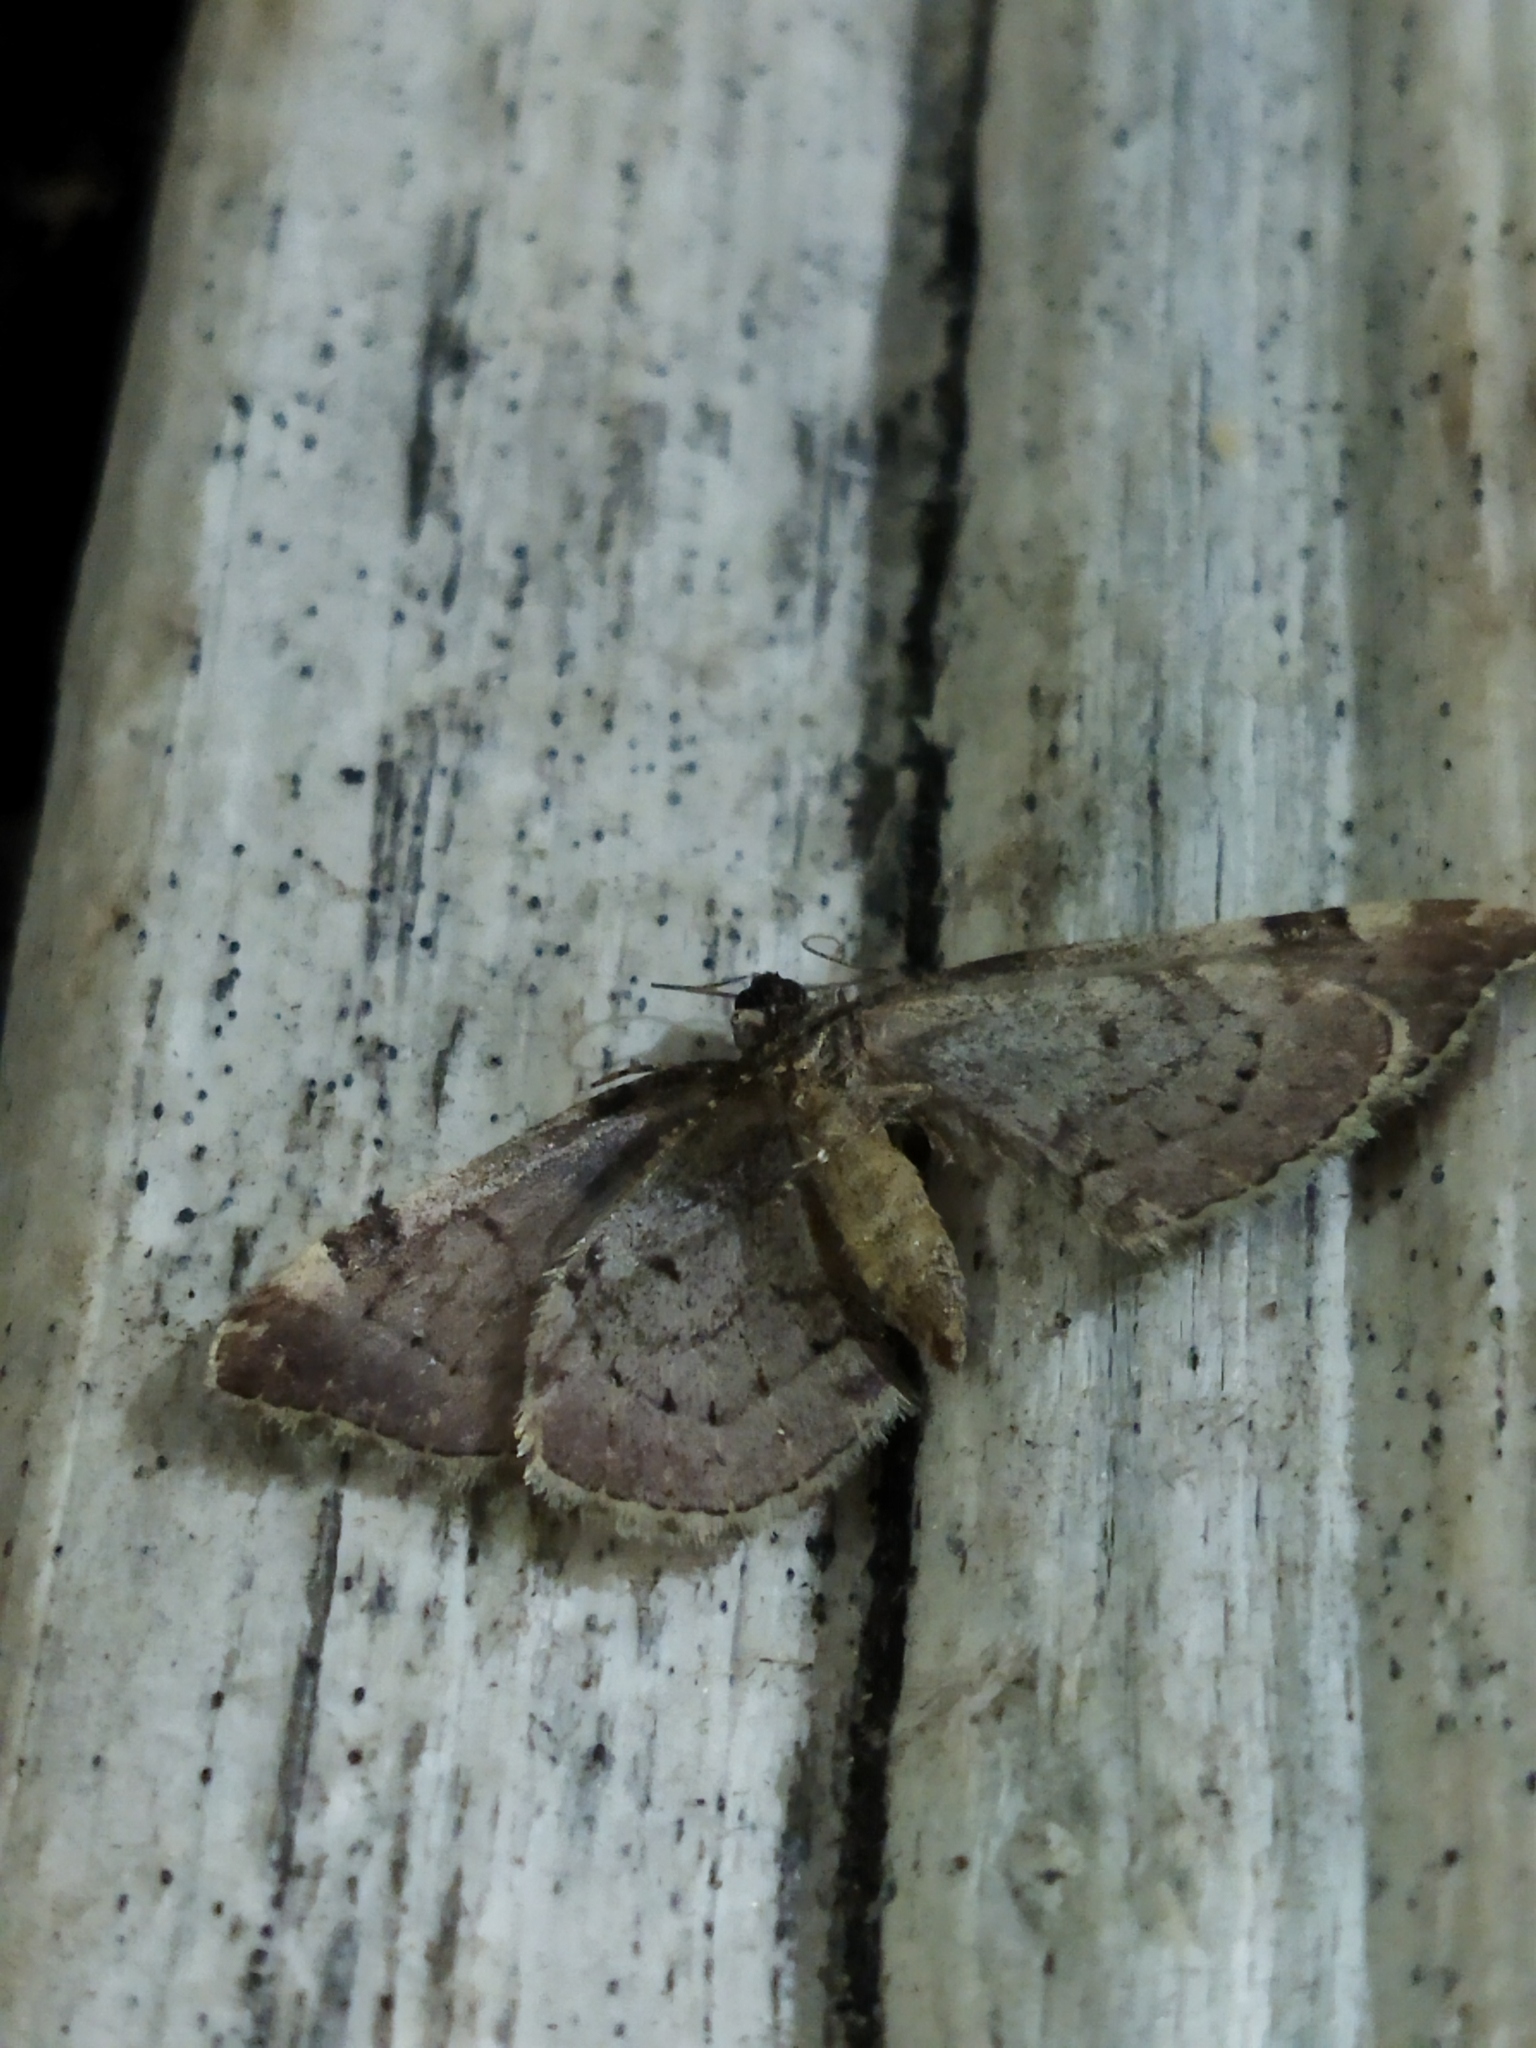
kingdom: Animalia
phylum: Arthropoda
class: Insecta
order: Lepidoptera
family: Geometridae
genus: Anticlea
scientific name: Anticlea derivata
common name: Streamer
